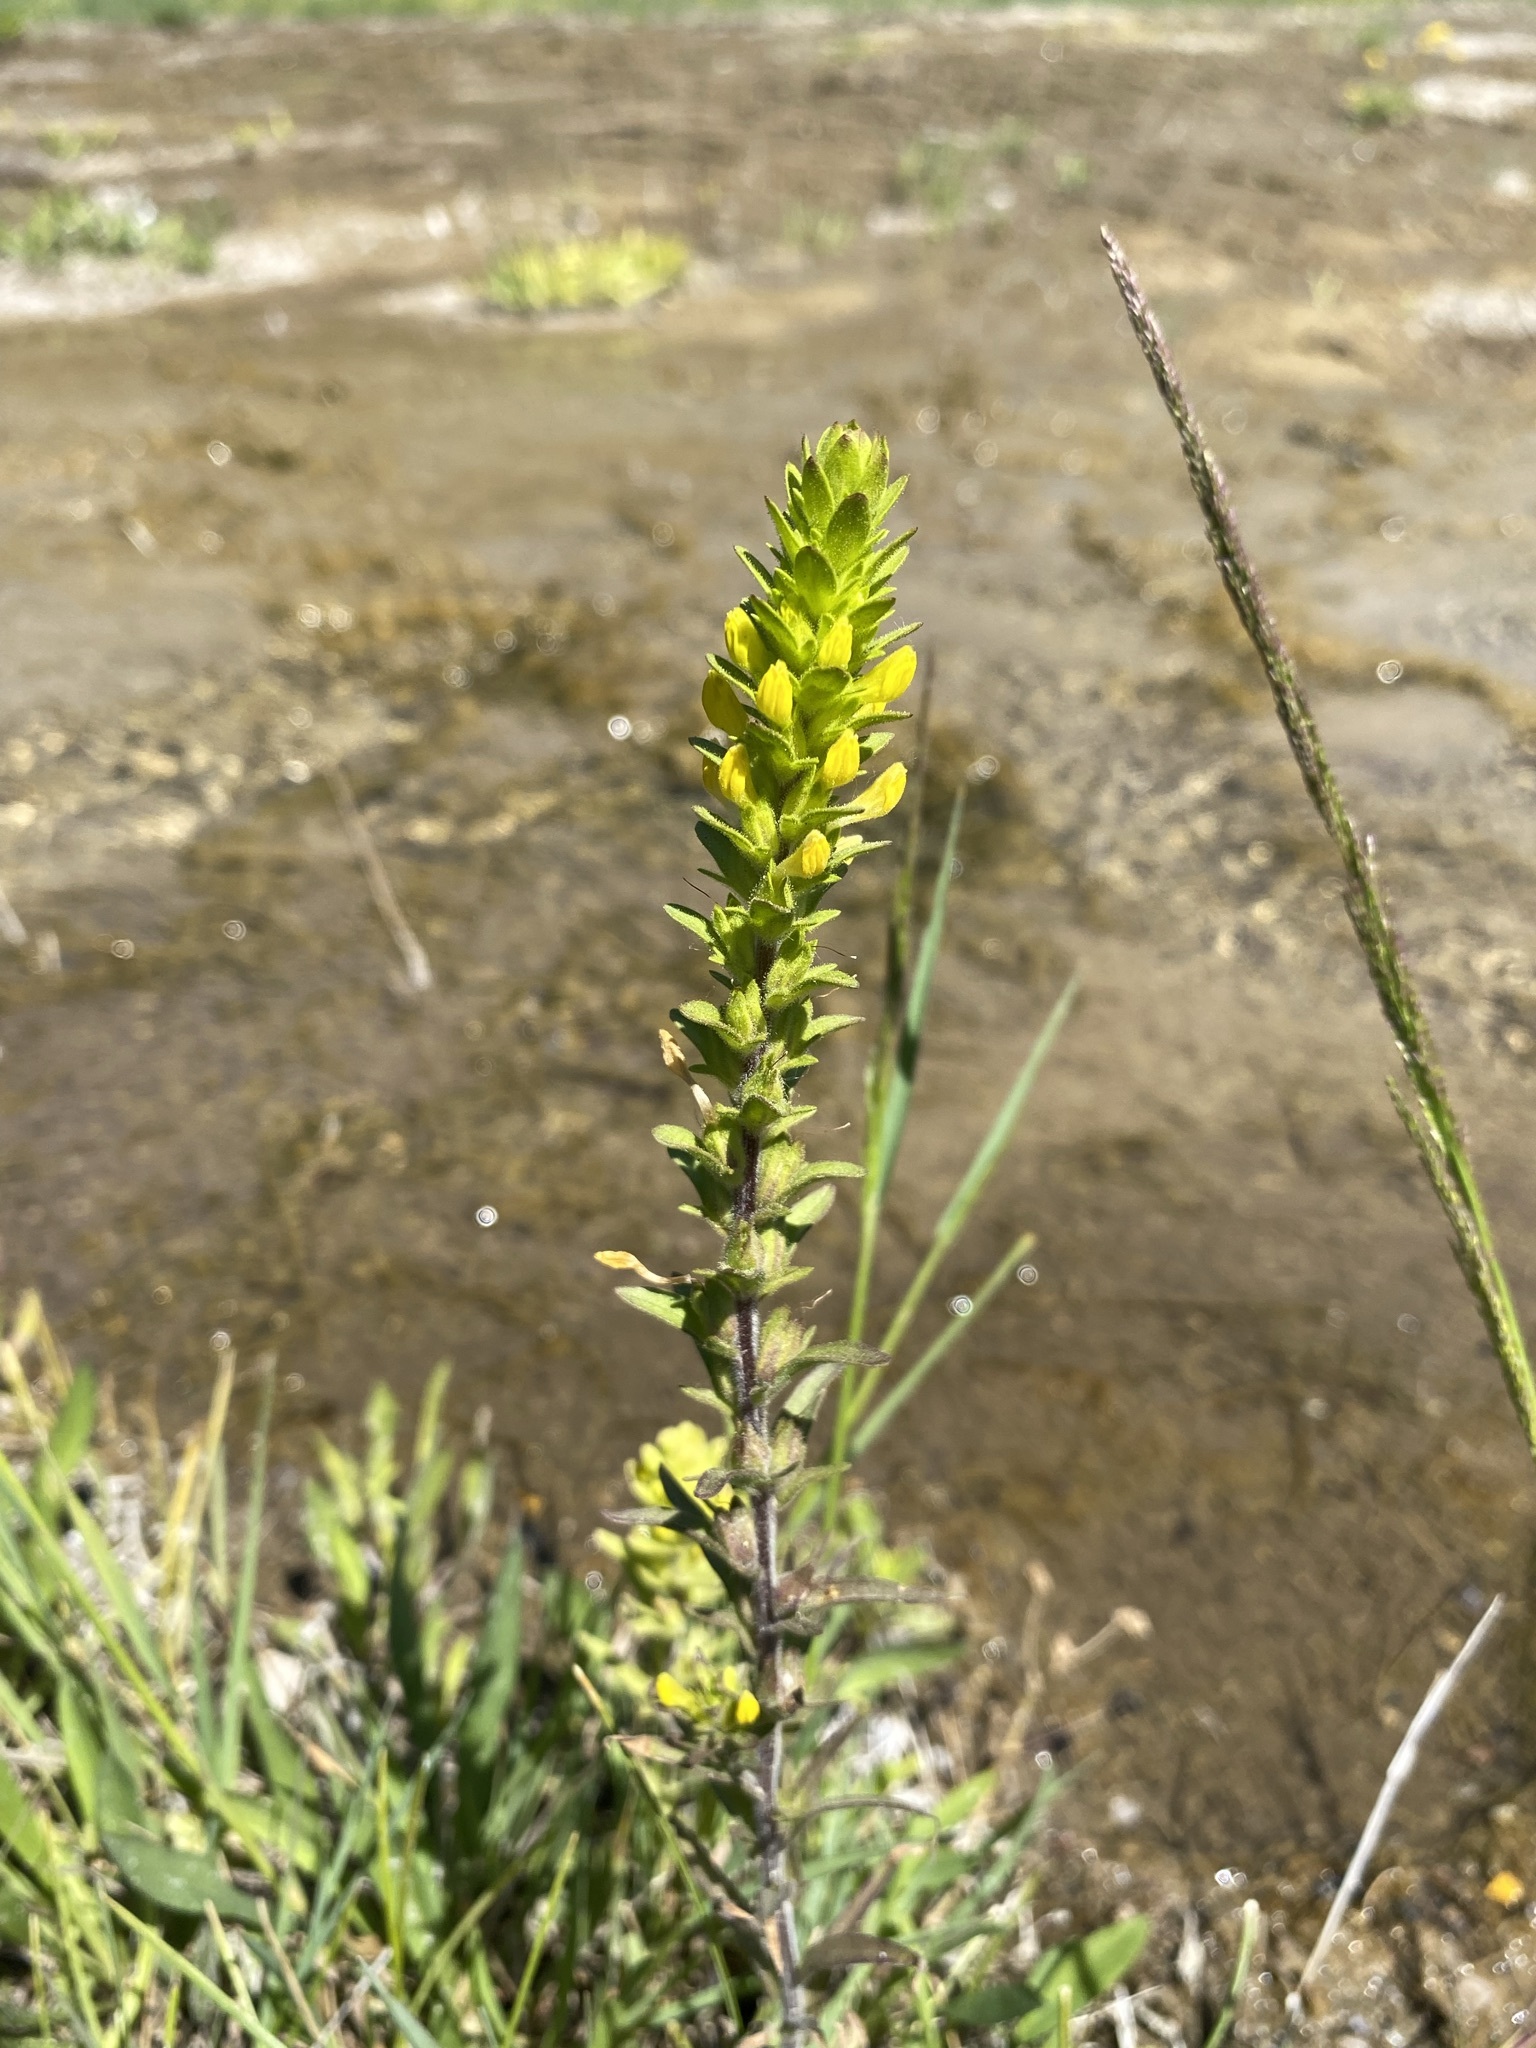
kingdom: Plantae
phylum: Tracheophyta
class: Magnoliopsida
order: Lamiales
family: Orobanchaceae
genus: Orthocarpus
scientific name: Orthocarpus luteus
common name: Golden-tongue owl's-clover
